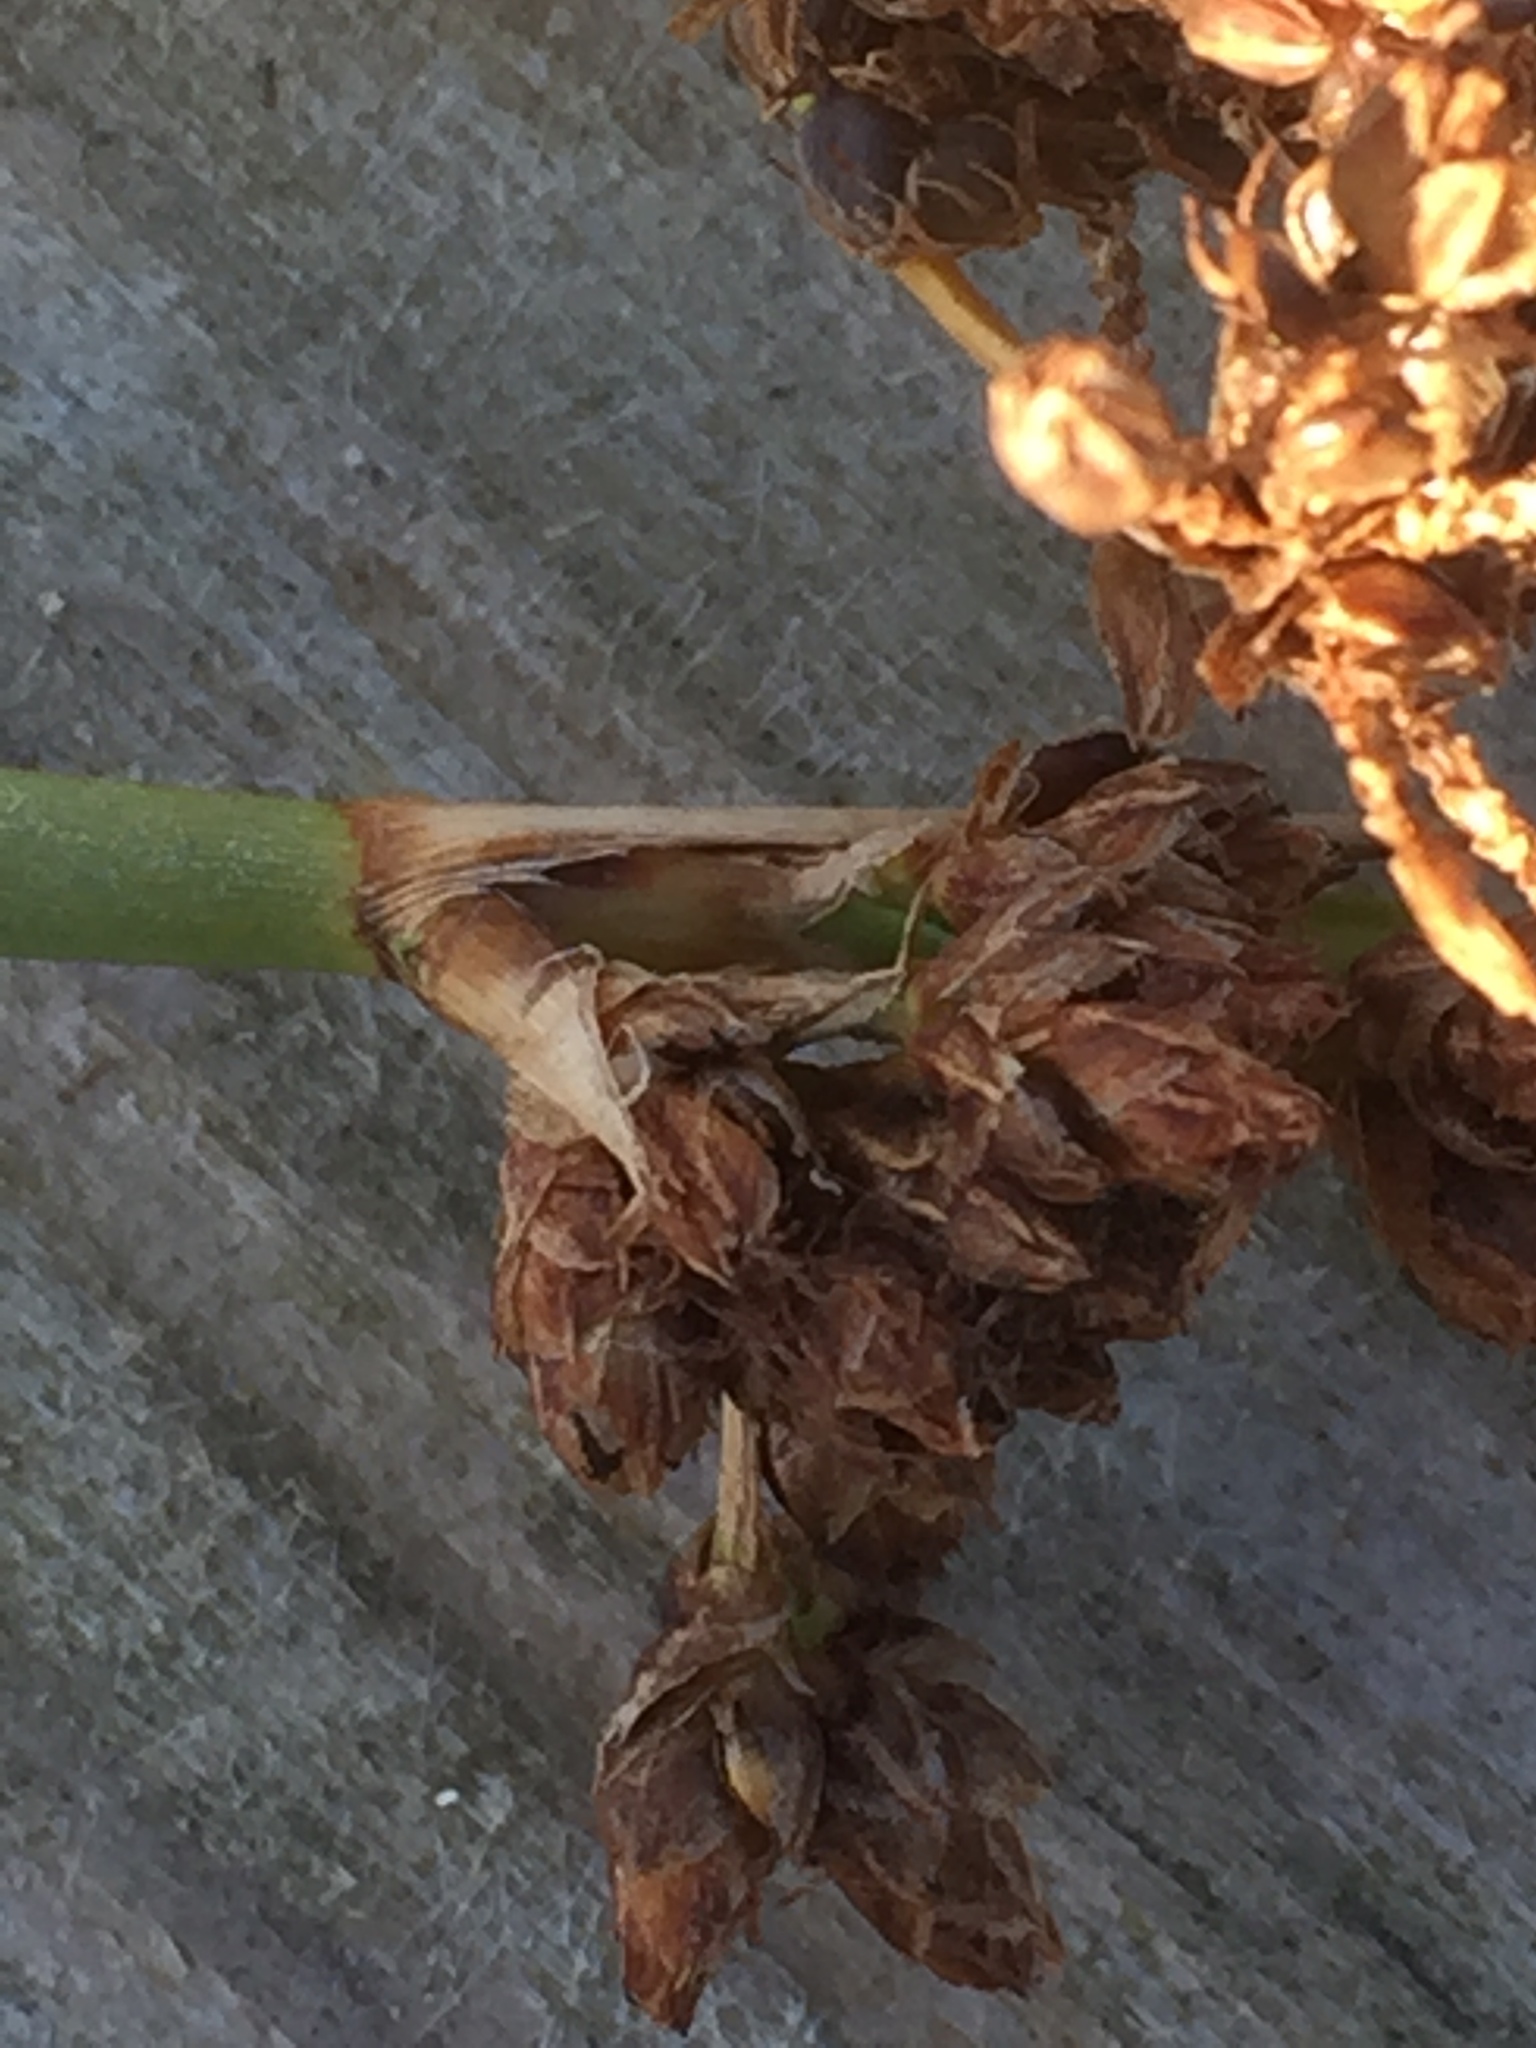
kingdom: Plantae
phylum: Tracheophyta
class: Liliopsida
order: Poales
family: Cyperaceae
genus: Schoenoplectus
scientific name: Schoenoplectus tabernaemontani
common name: Grey club-rush
